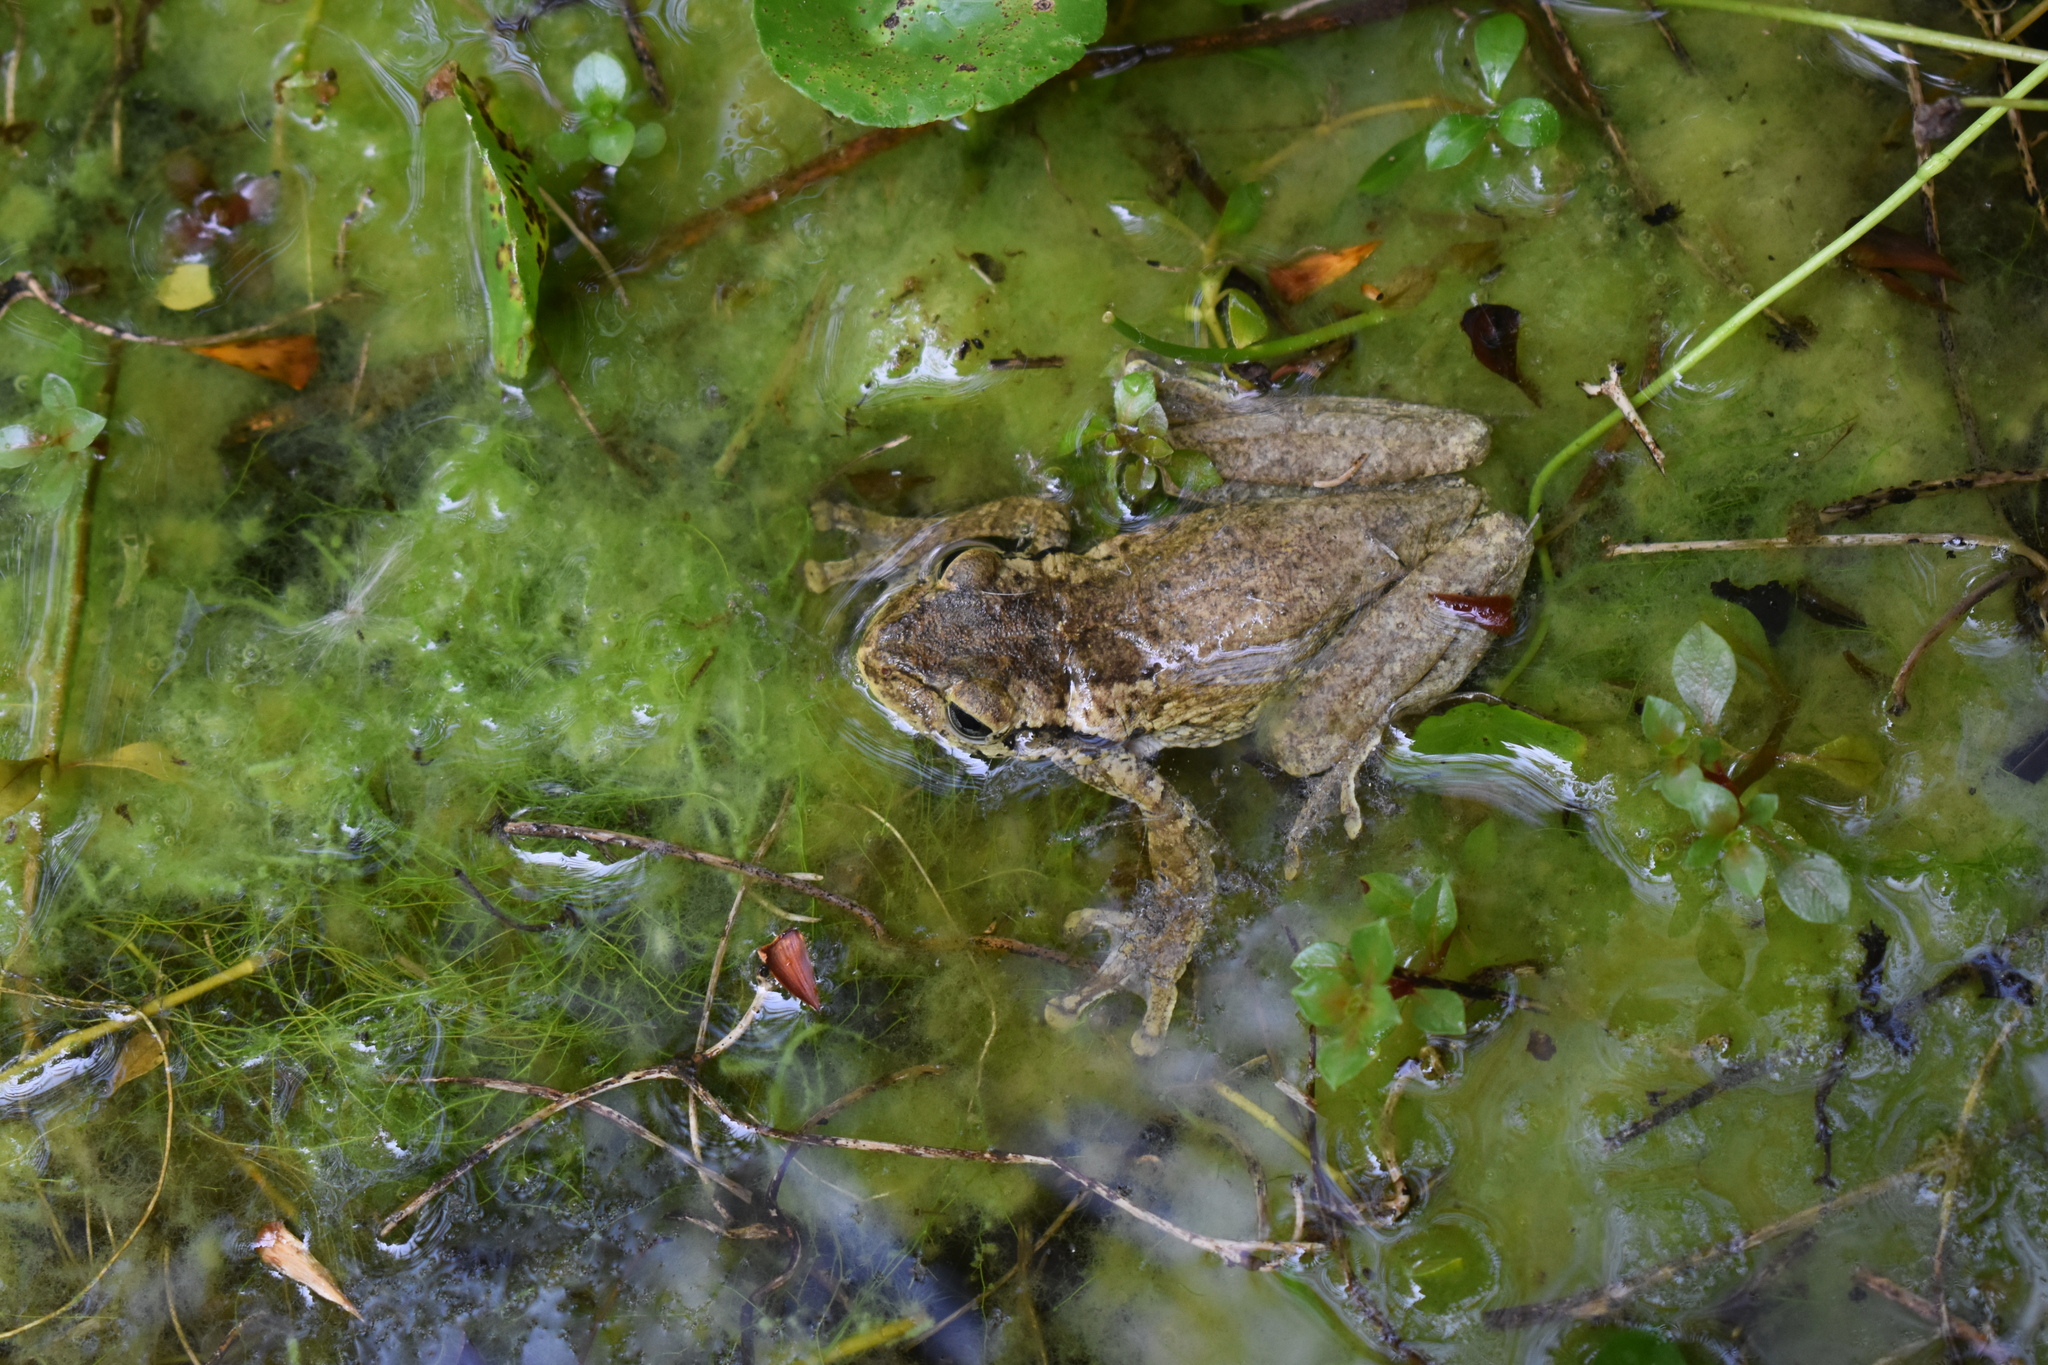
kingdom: Animalia
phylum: Chordata
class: Amphibia
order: Anura
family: Hylidae
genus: Osteopilus
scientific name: Osteopilus dominicensis
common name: Hispaniolan common treefrog
